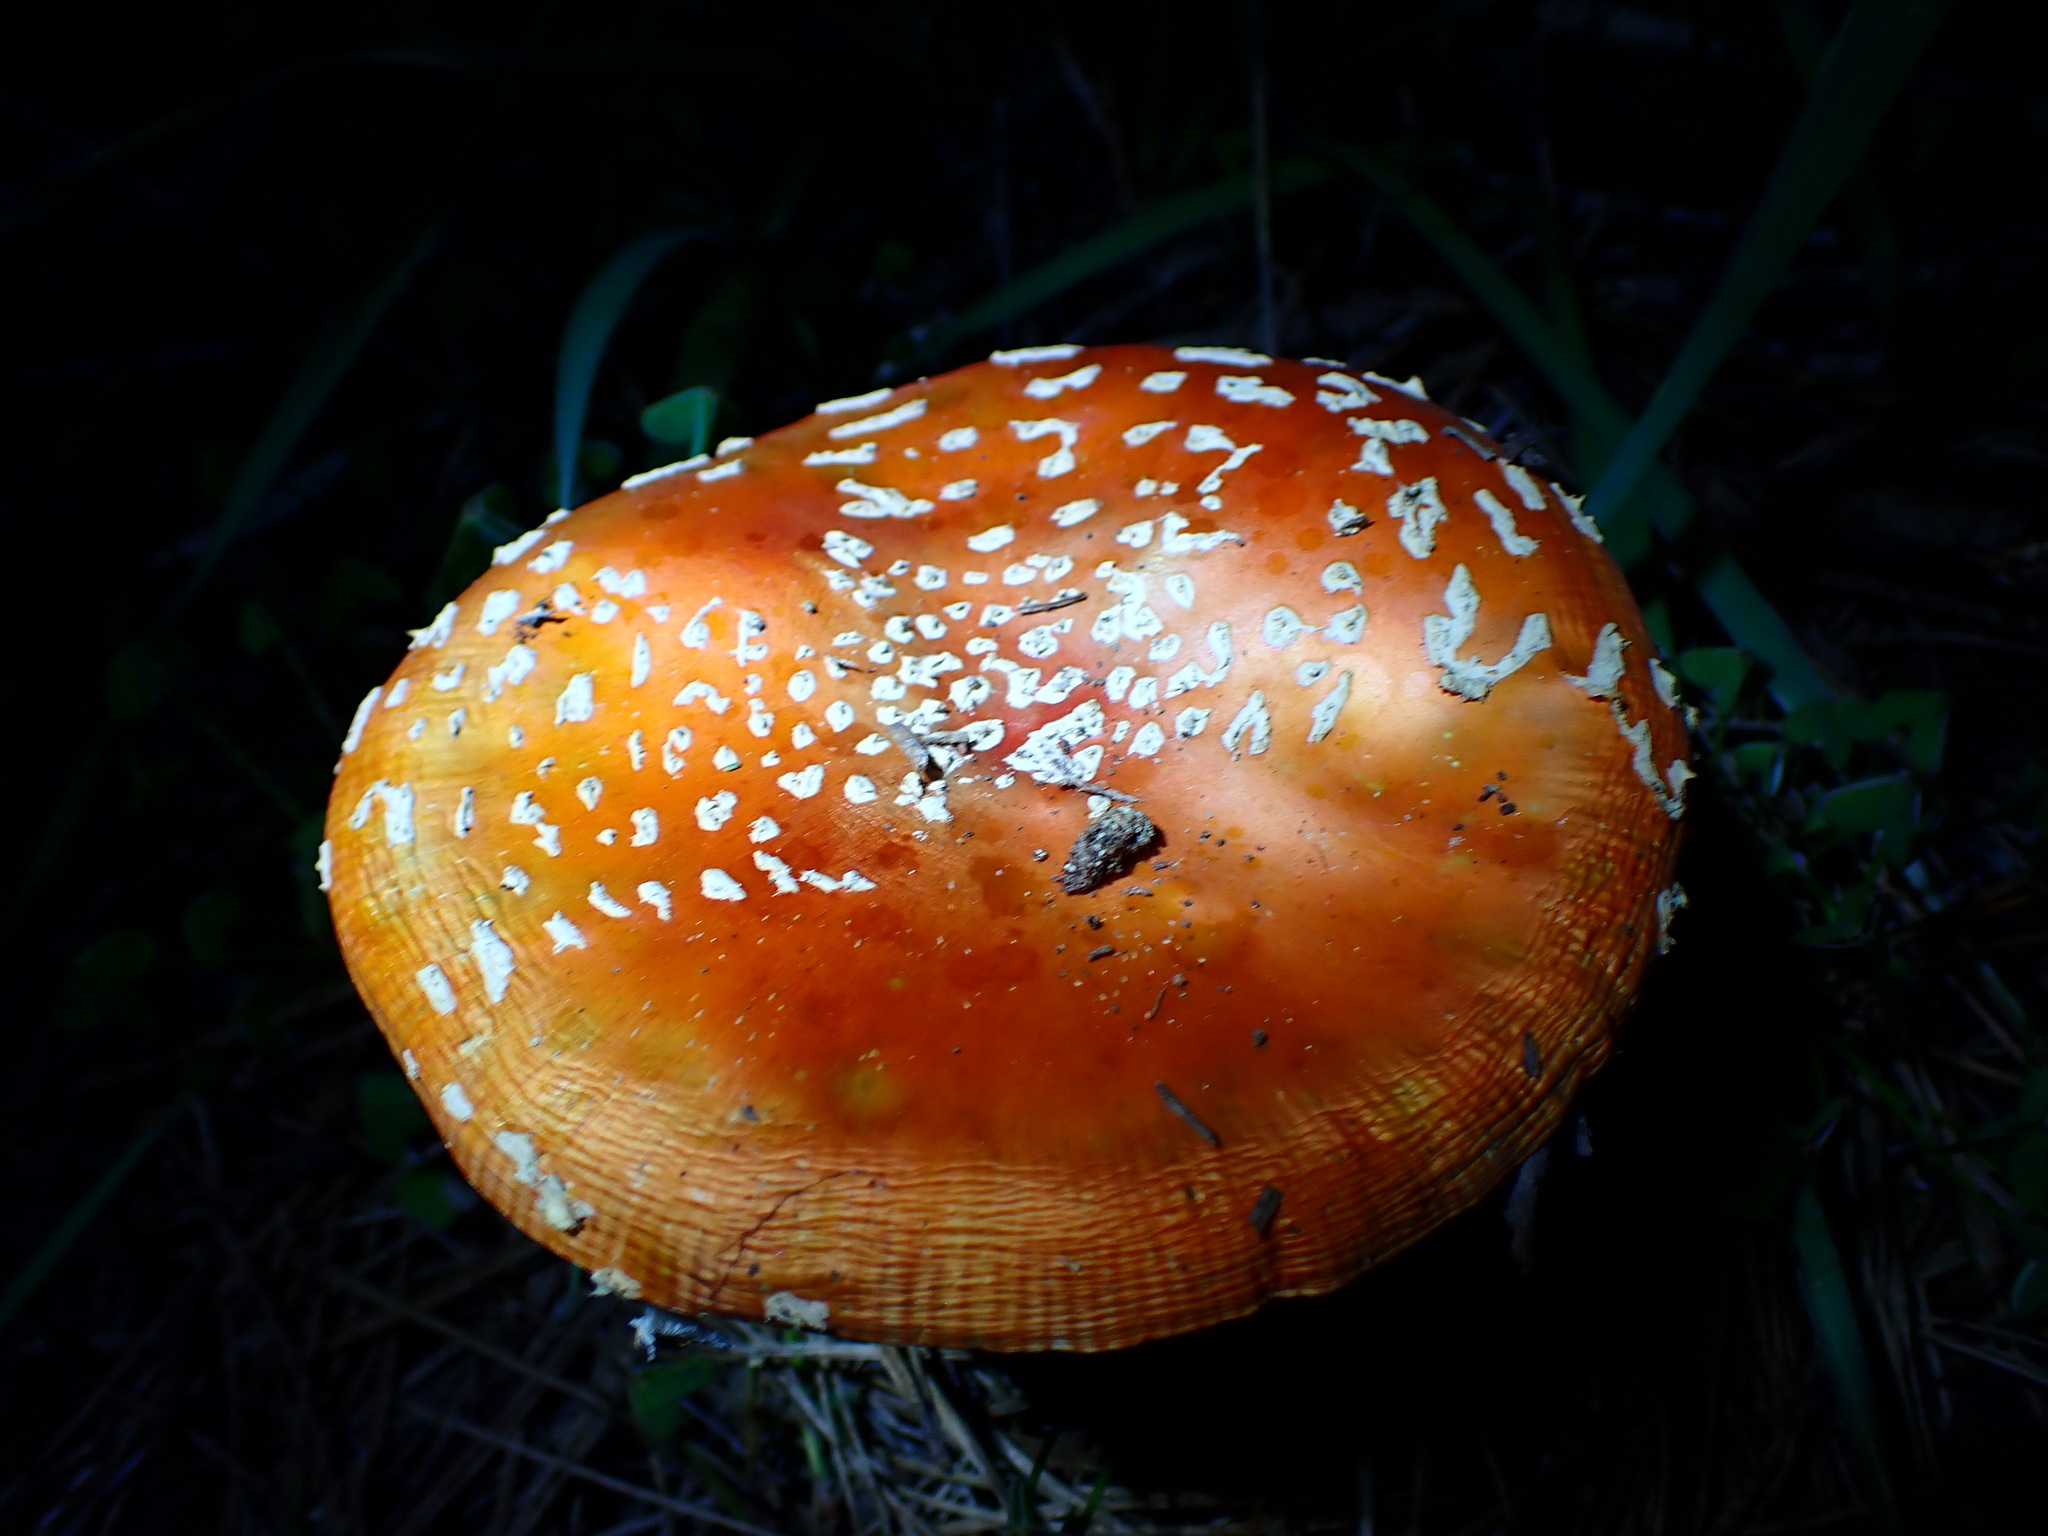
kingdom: Fungi
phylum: Basidiomycota
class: Agaricomycetes
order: Agaricales
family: Amanitaceae
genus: Amanita
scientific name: Amanita muscaria
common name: Fly agaric
